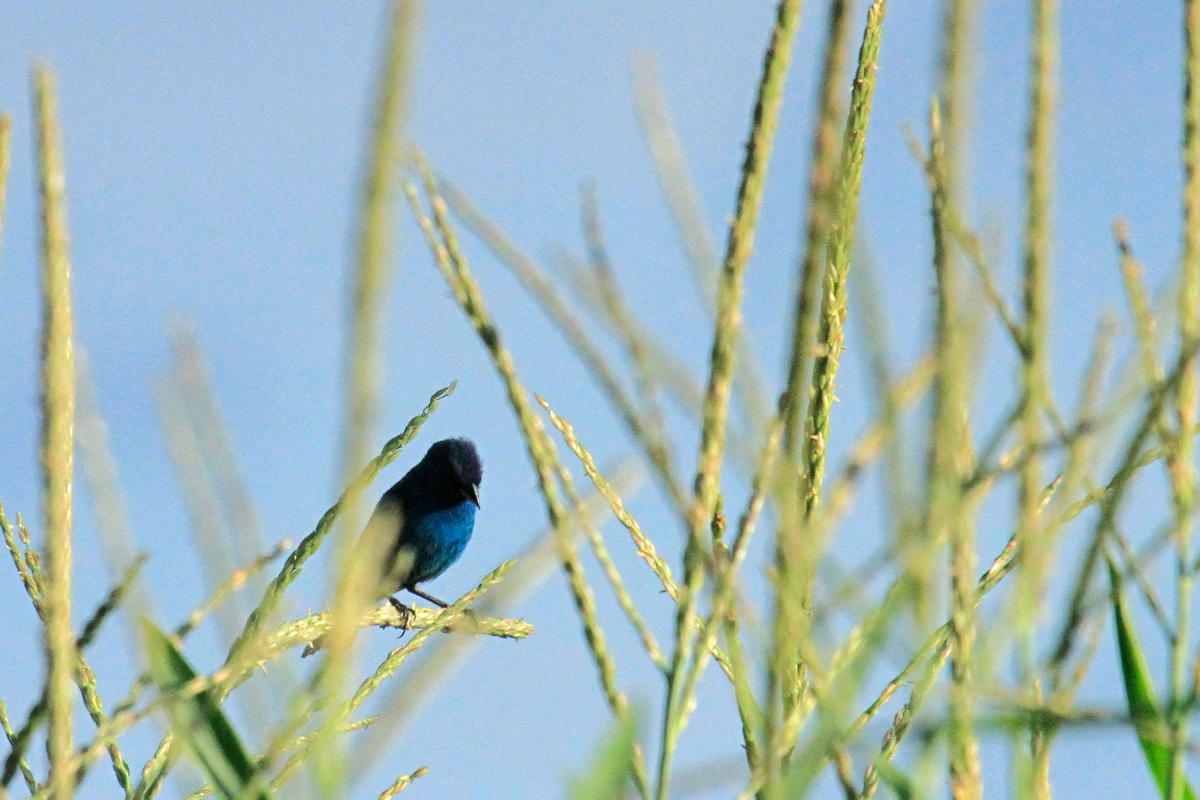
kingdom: Animalia
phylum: Chordata
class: Aves
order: Passeriformes
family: Cardinalidae
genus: Passerina
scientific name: Passerina cyanea
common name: Indigo bunting
